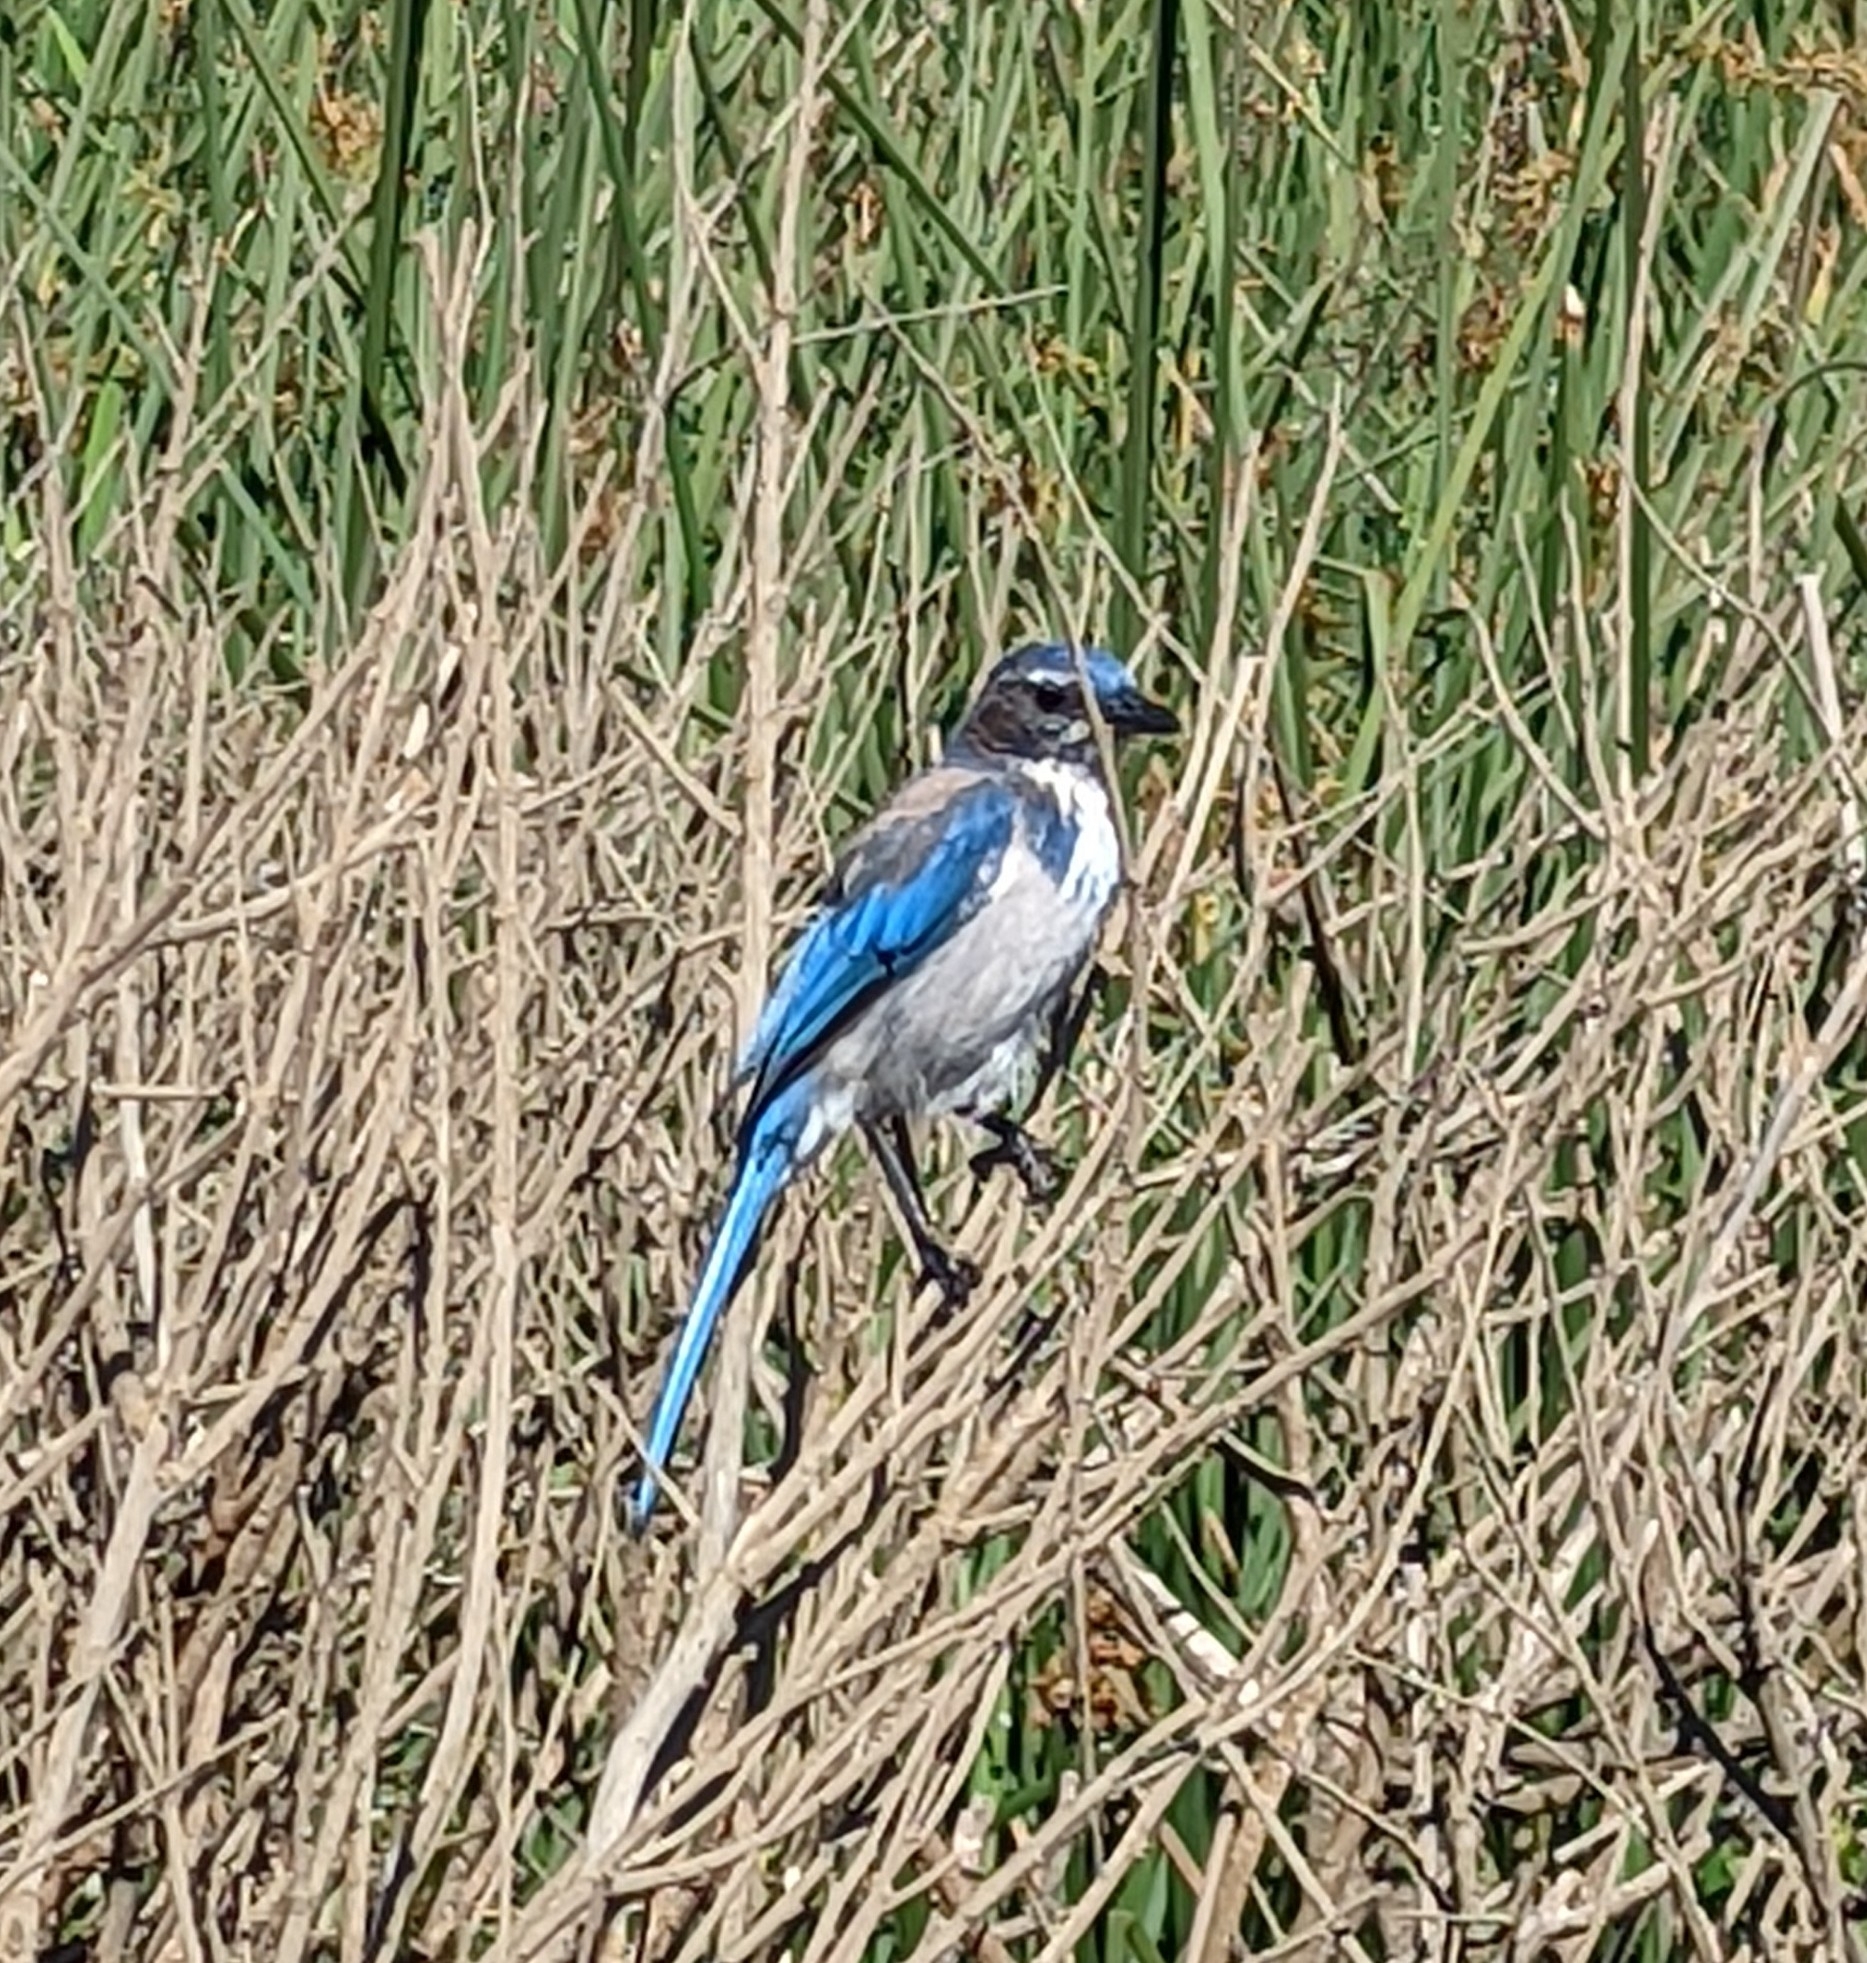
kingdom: Animalia
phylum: Chordata
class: Aves
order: Passeriformes
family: Corvidae
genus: Aphelocoma
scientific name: Aphelocoma californica
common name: California scrub-jay
